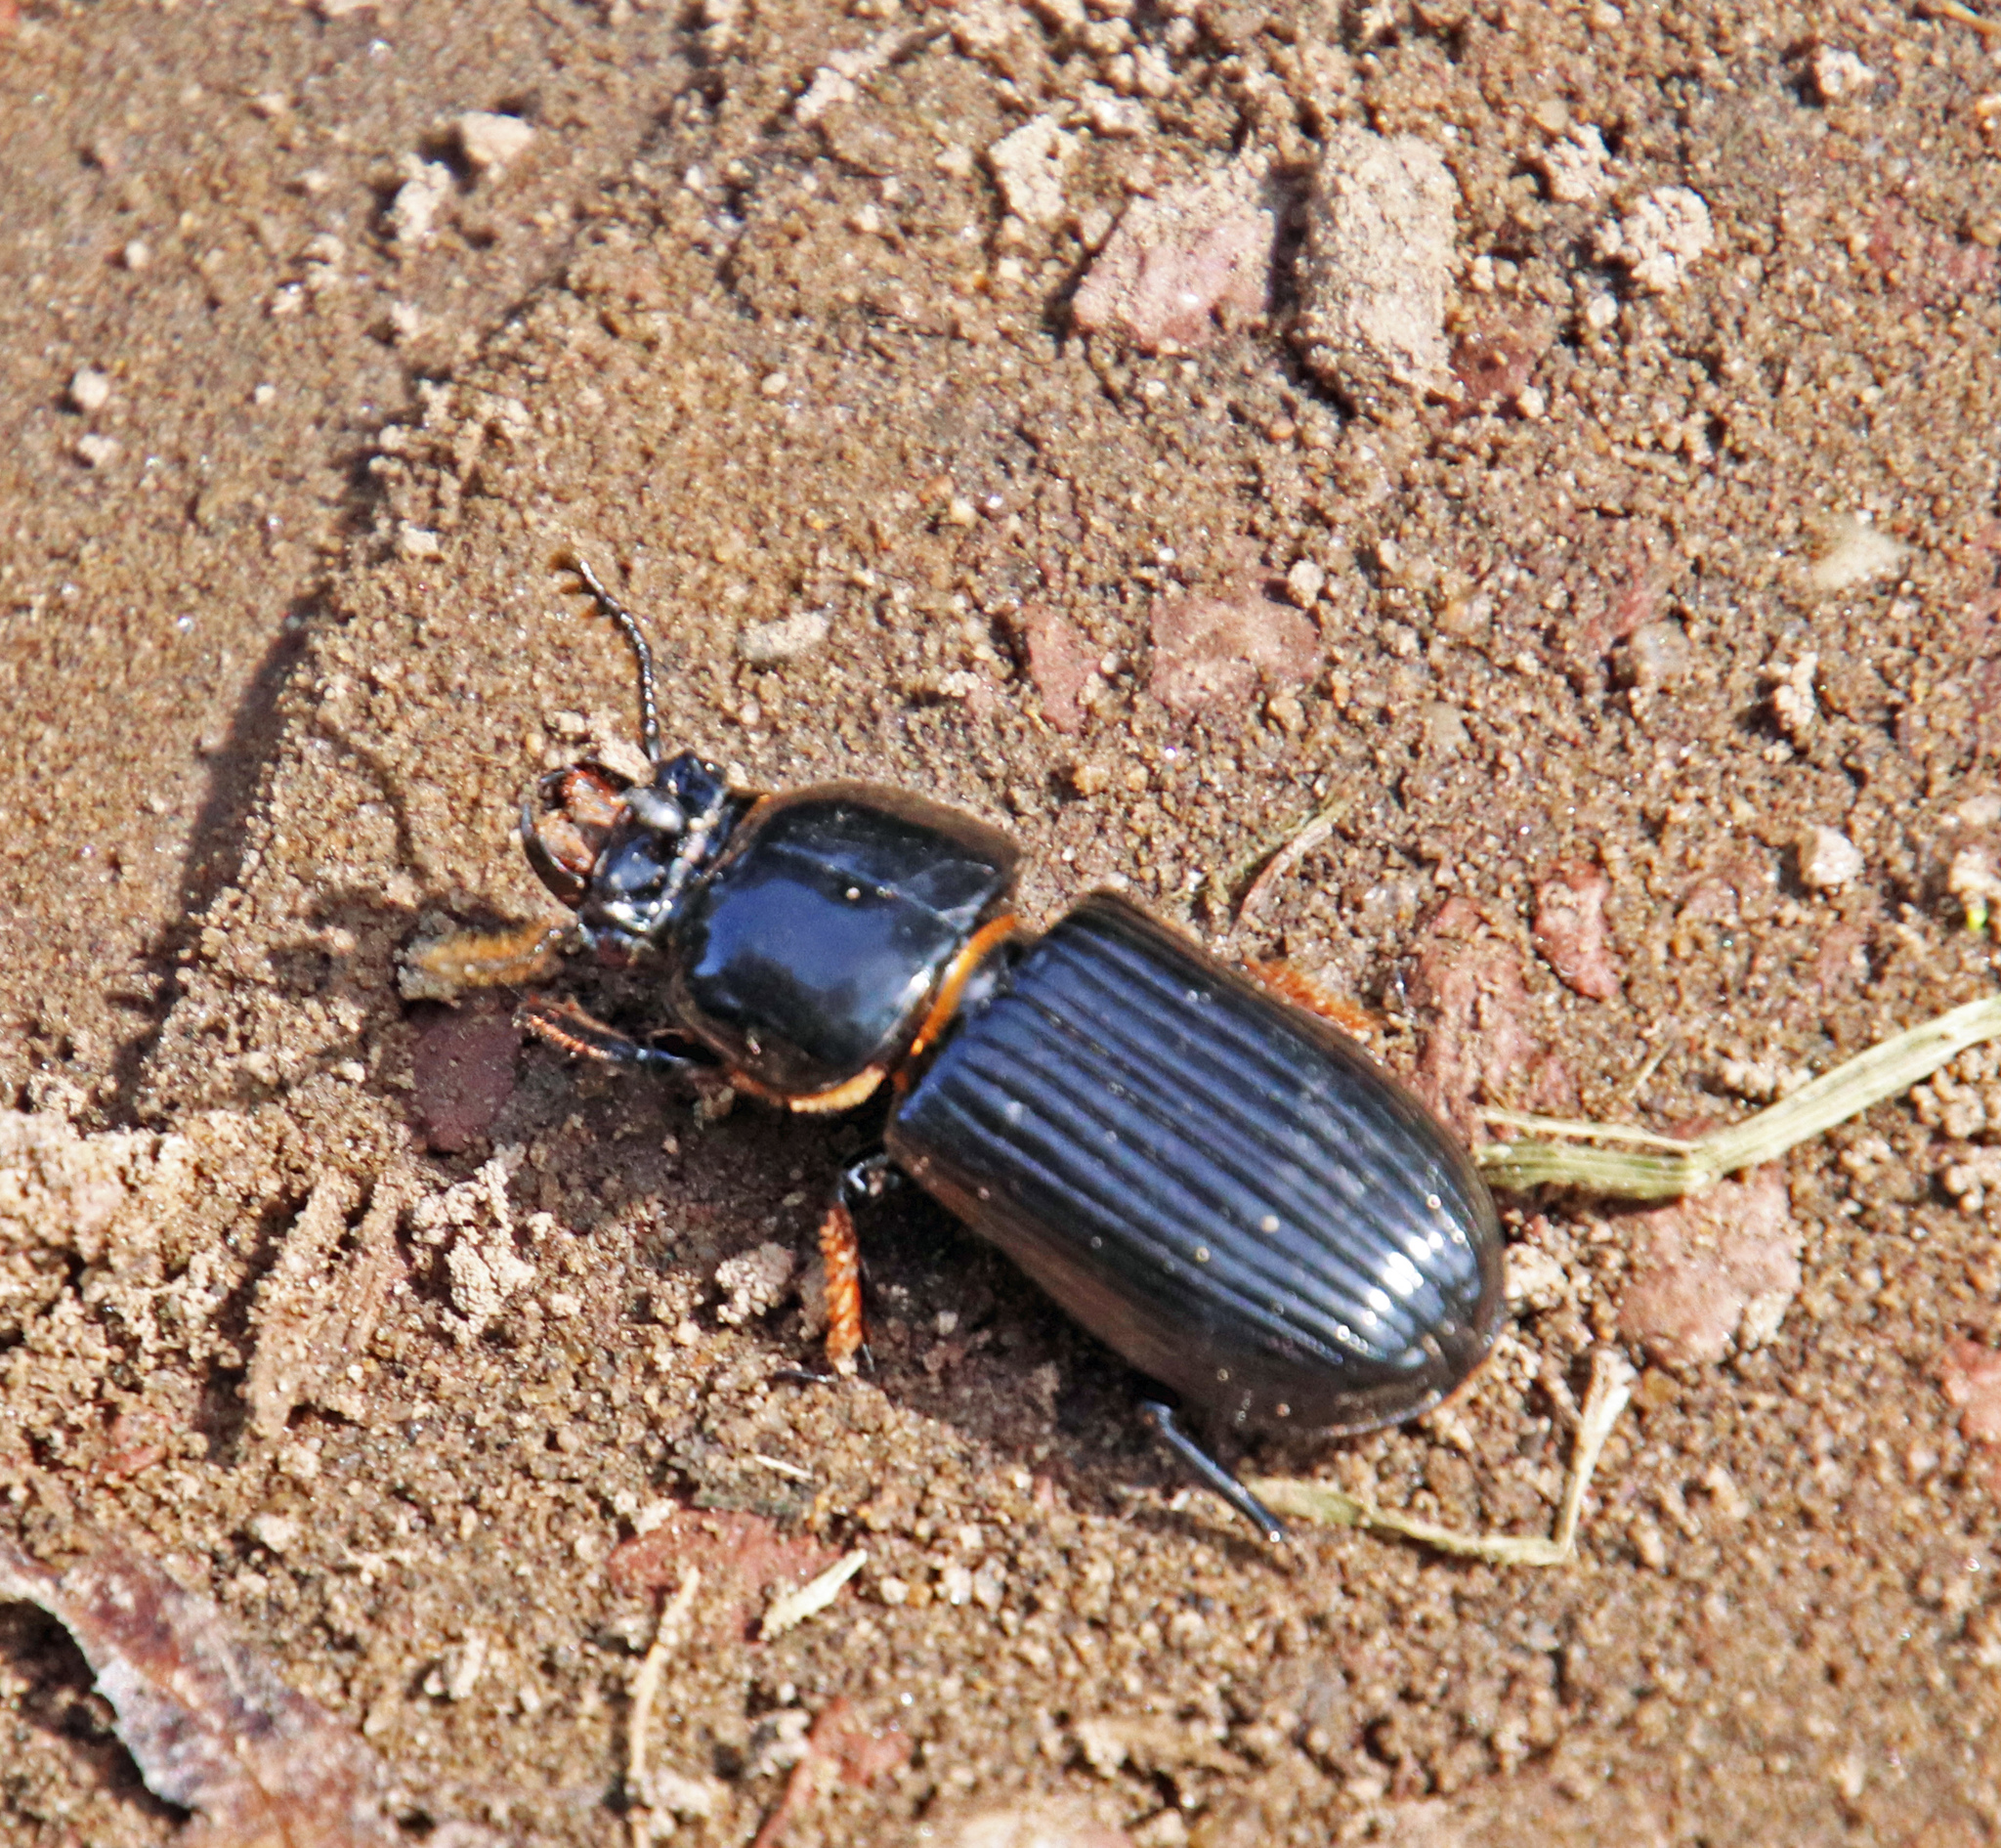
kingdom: Animalia
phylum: Arthropoda
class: Insecta
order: Coleoptera
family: Passalidae
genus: Odontotaenius
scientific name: Odontotaenius disjunctus
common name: Patent leather beetle
